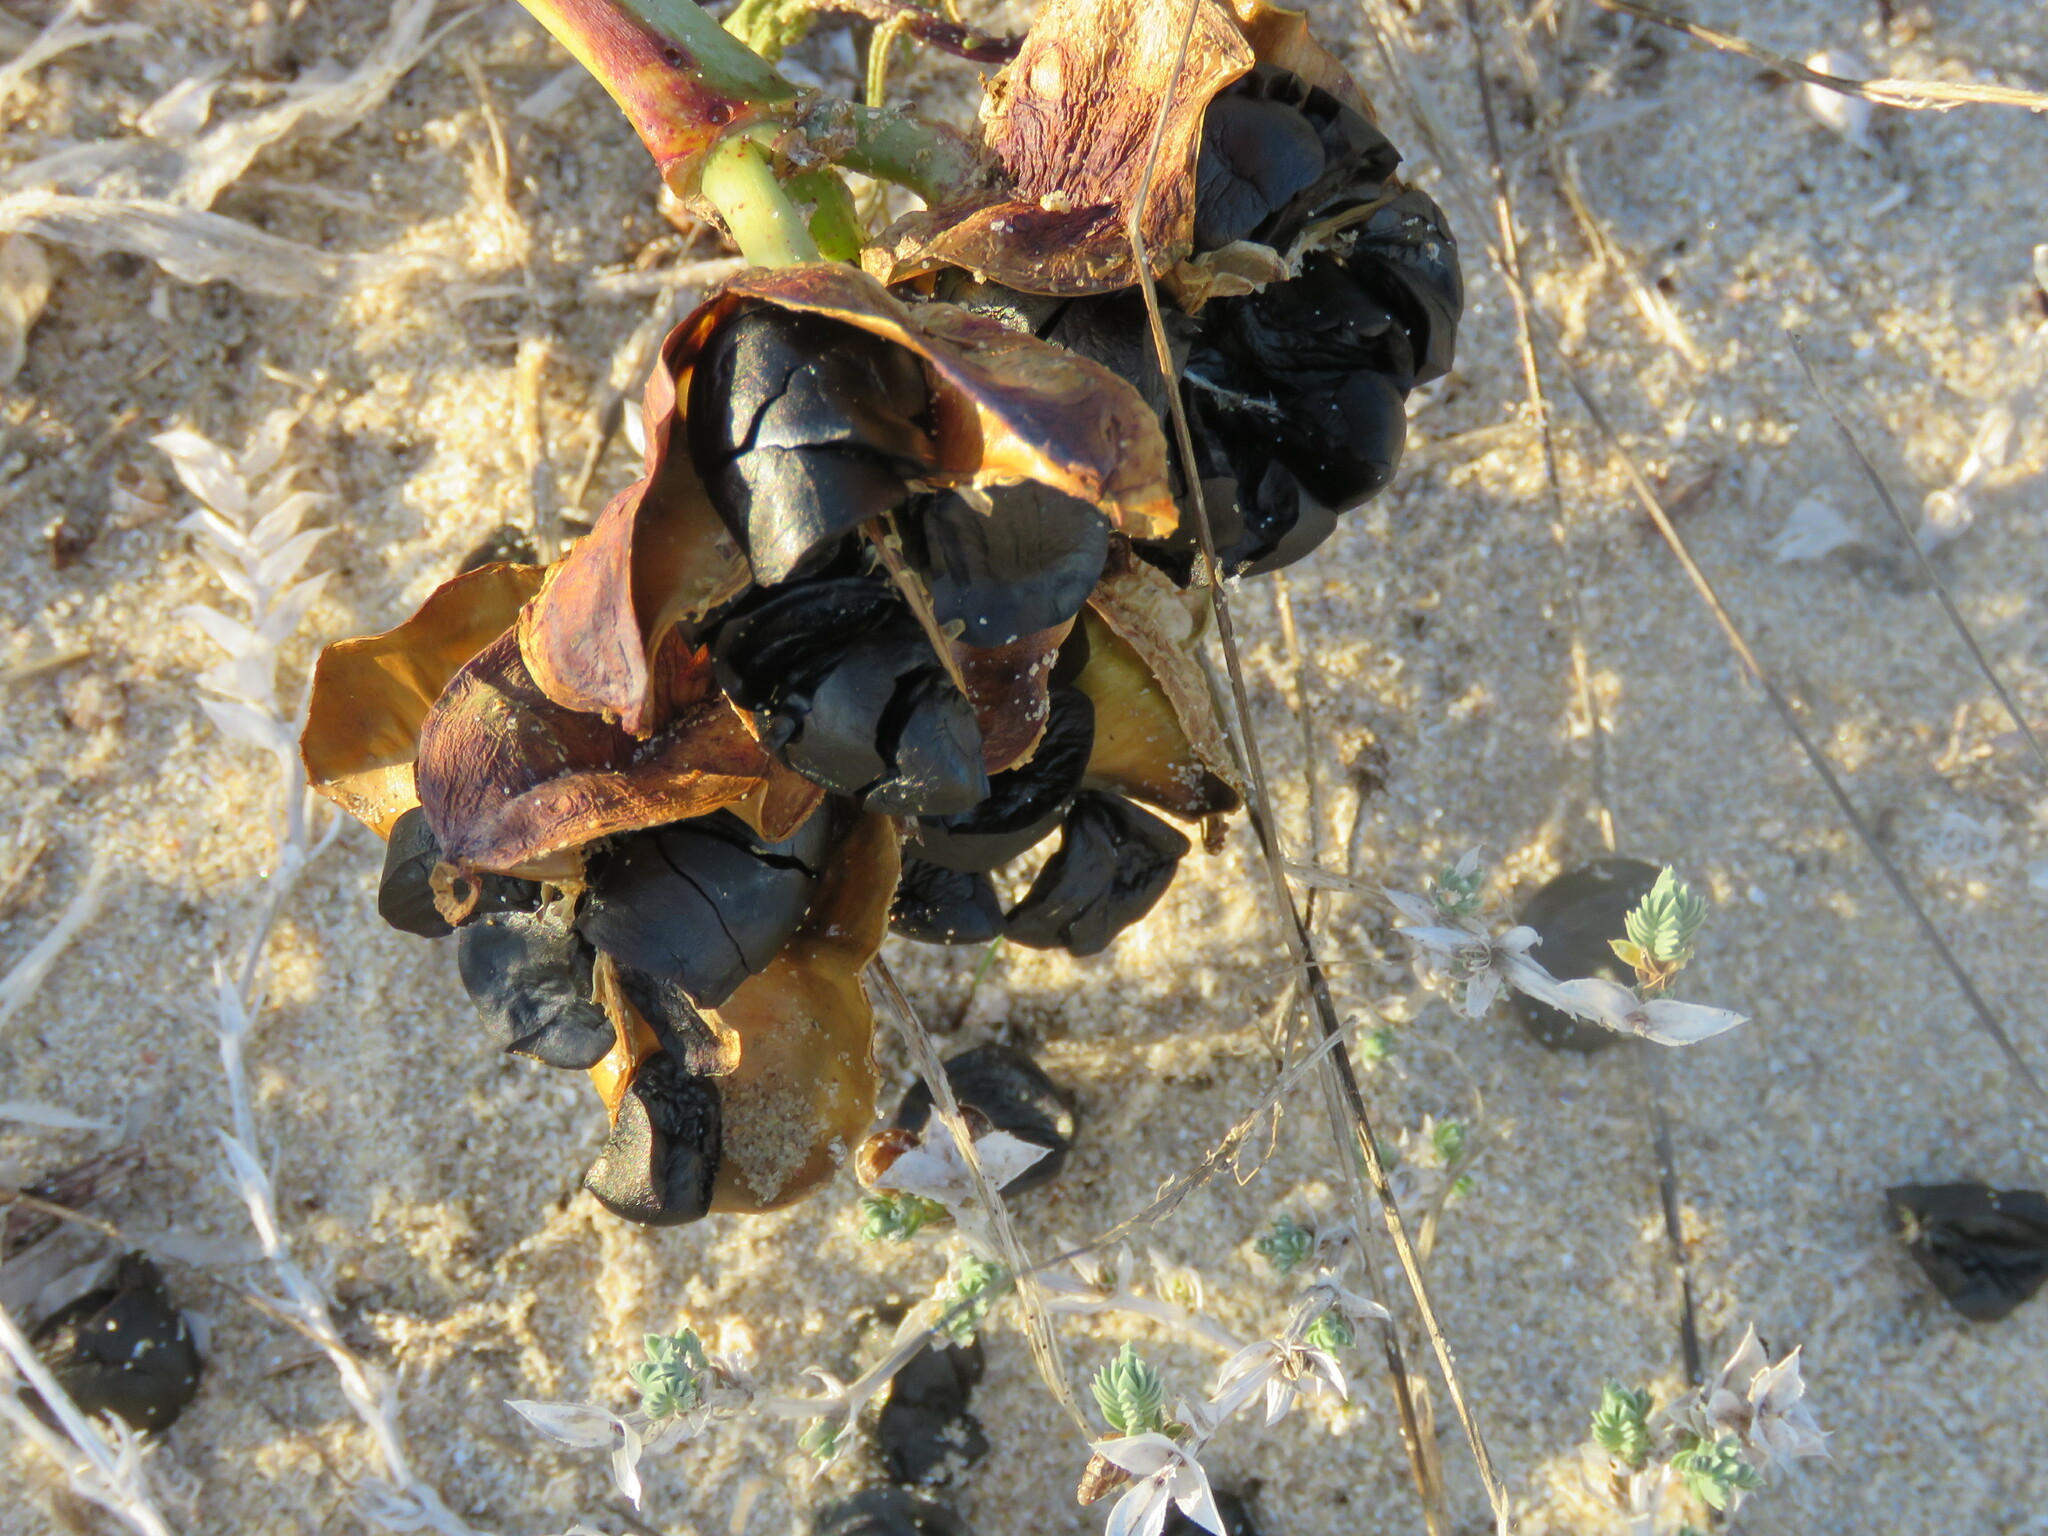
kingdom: Plantae
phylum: Tracheophyta
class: Liliopsida
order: Asparagales
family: Amaryllidaceae
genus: Pancratium
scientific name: Pancratium maritimum
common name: Sea-daffodil
